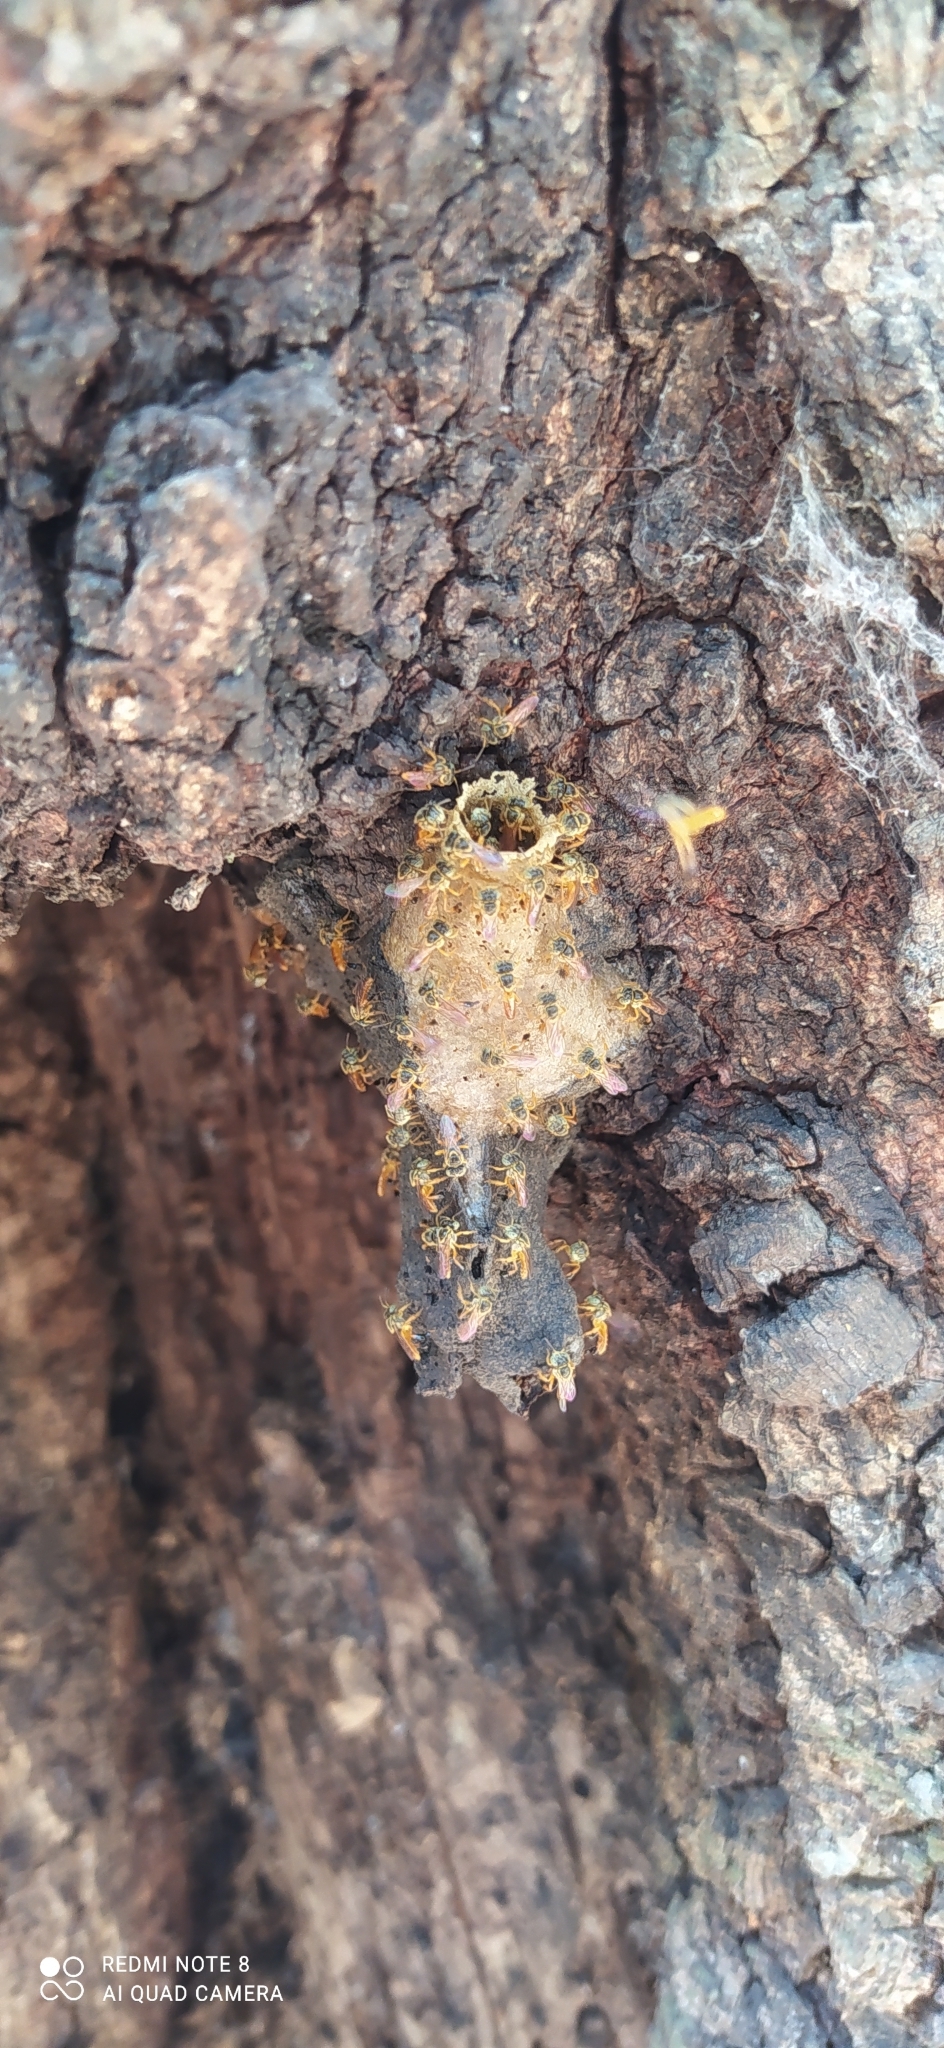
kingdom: Animalia
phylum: Arthropoda
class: Insecta
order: Hymenoptera
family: Apidae
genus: Tetragonisca
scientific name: Tetragonisca fiebrigi
